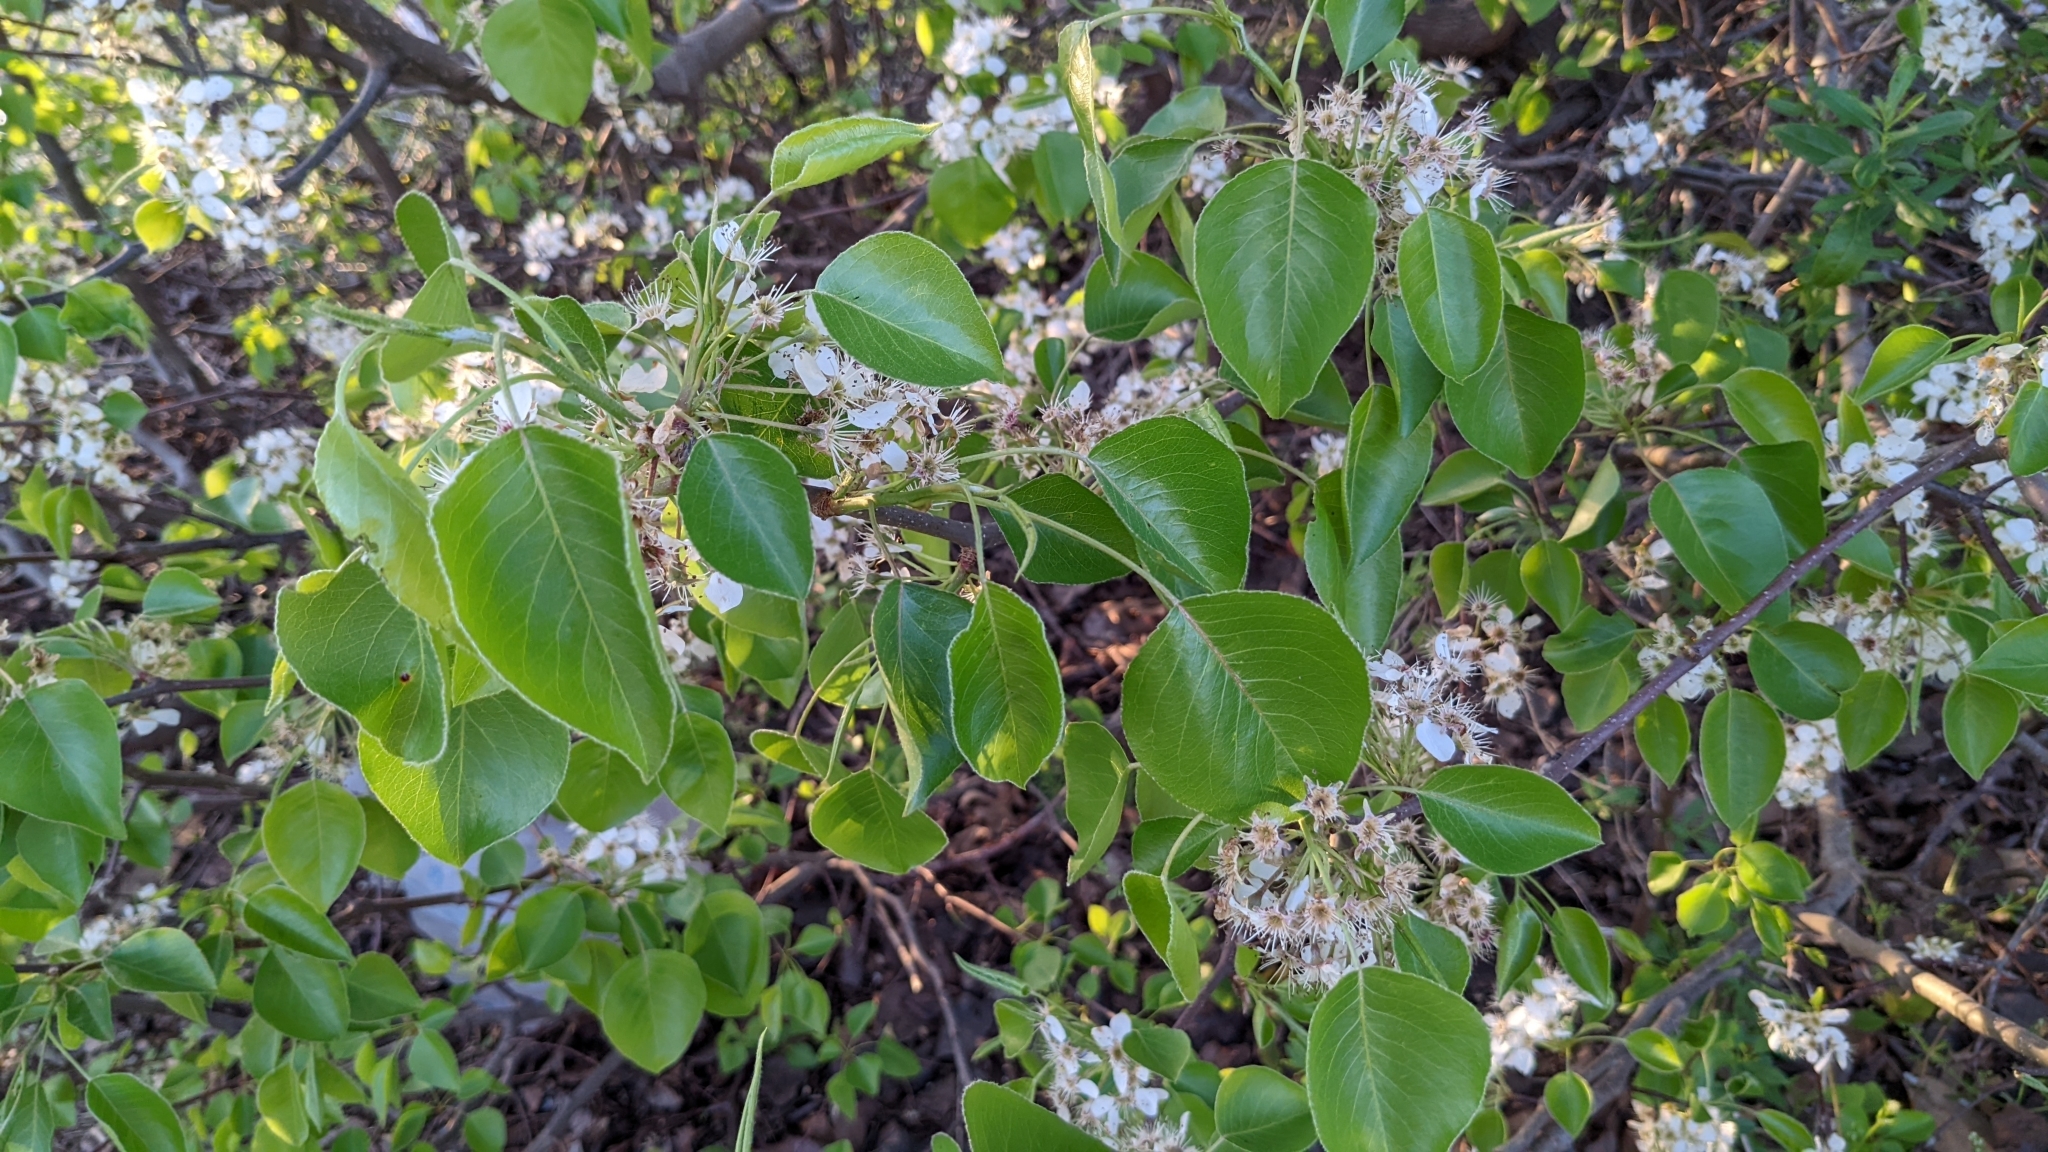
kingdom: Plantae
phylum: Tracheophyta
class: Magnoliopsida
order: Rosales
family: Rosaceae
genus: Pyrus
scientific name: Pyrus calleryana
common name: Callery pear
